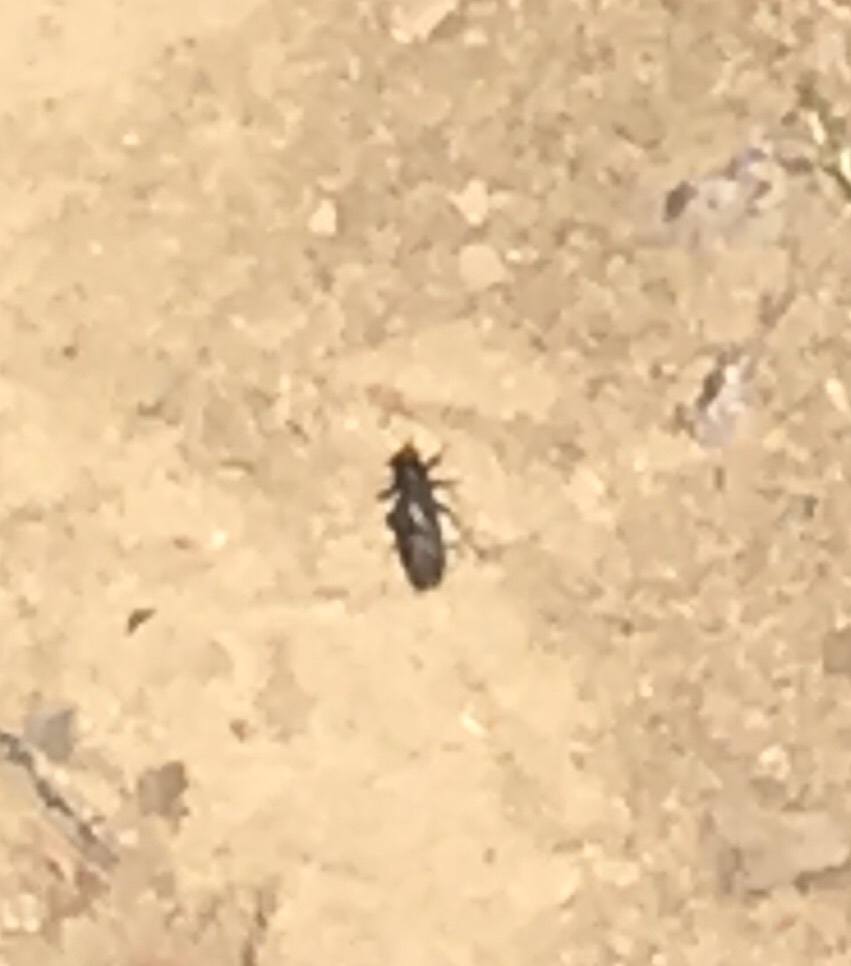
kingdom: Animalia
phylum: Arthropoda
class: Insecta
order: Diptera
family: Stratiomyidae
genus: Inopus
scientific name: Inopus rubriceps
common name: Soldier fly
